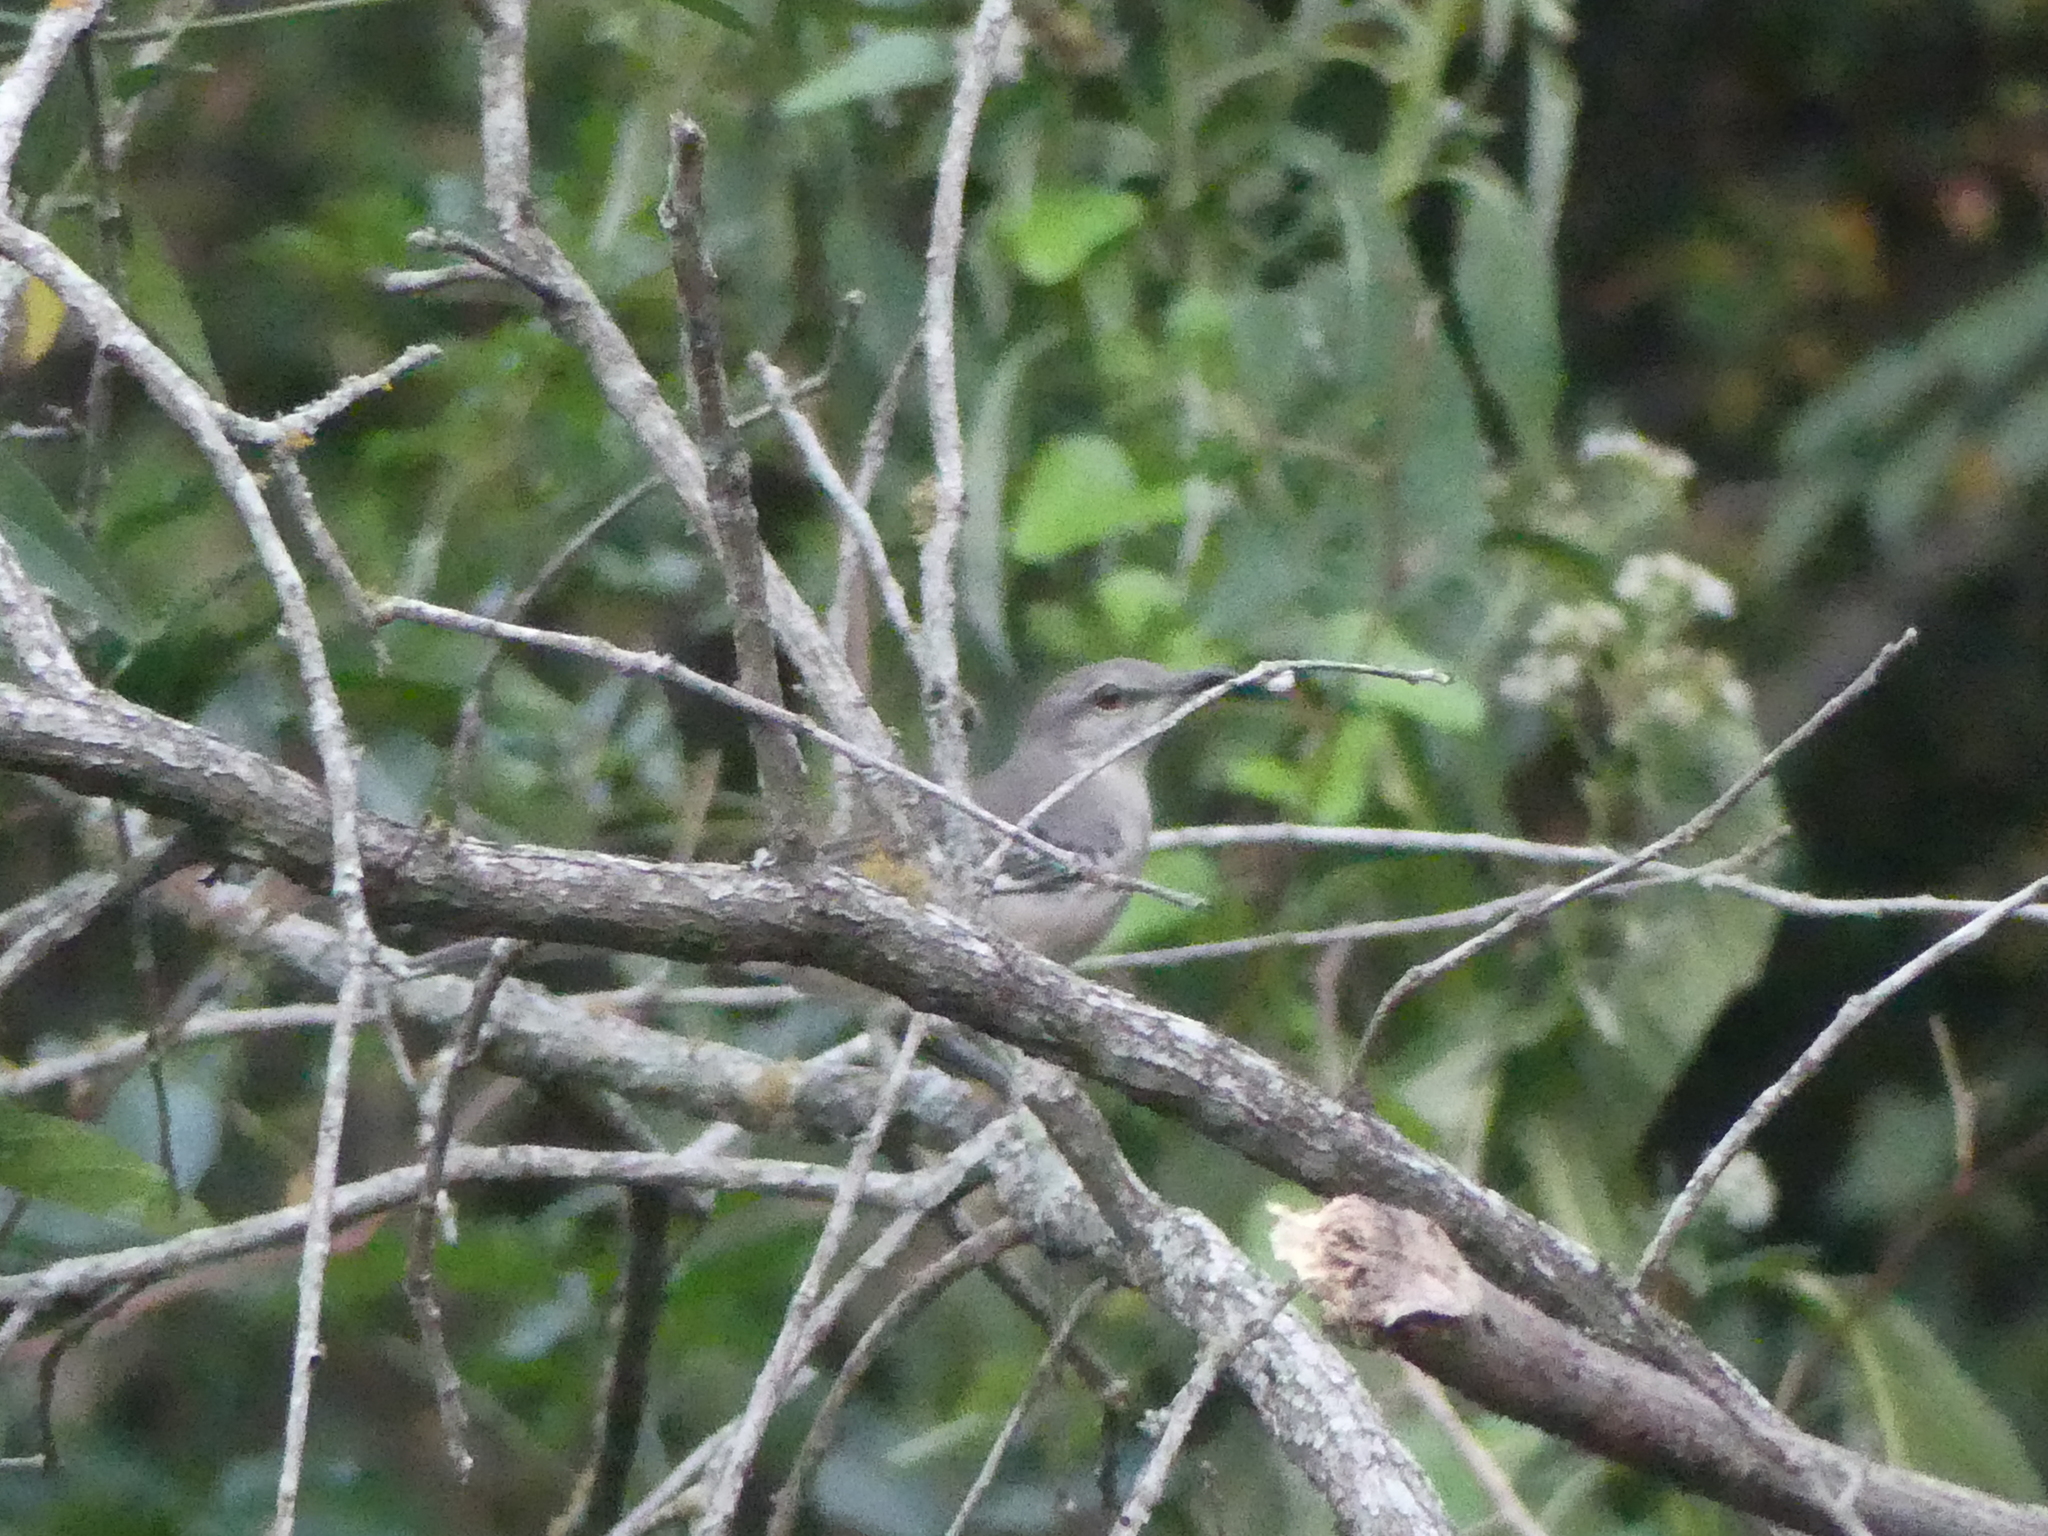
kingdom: Animalia
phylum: Chordata
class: Aves
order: Passeriformes
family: Mimidae
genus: Mimus
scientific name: Mimus polyglottos
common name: Northern mockingbird
